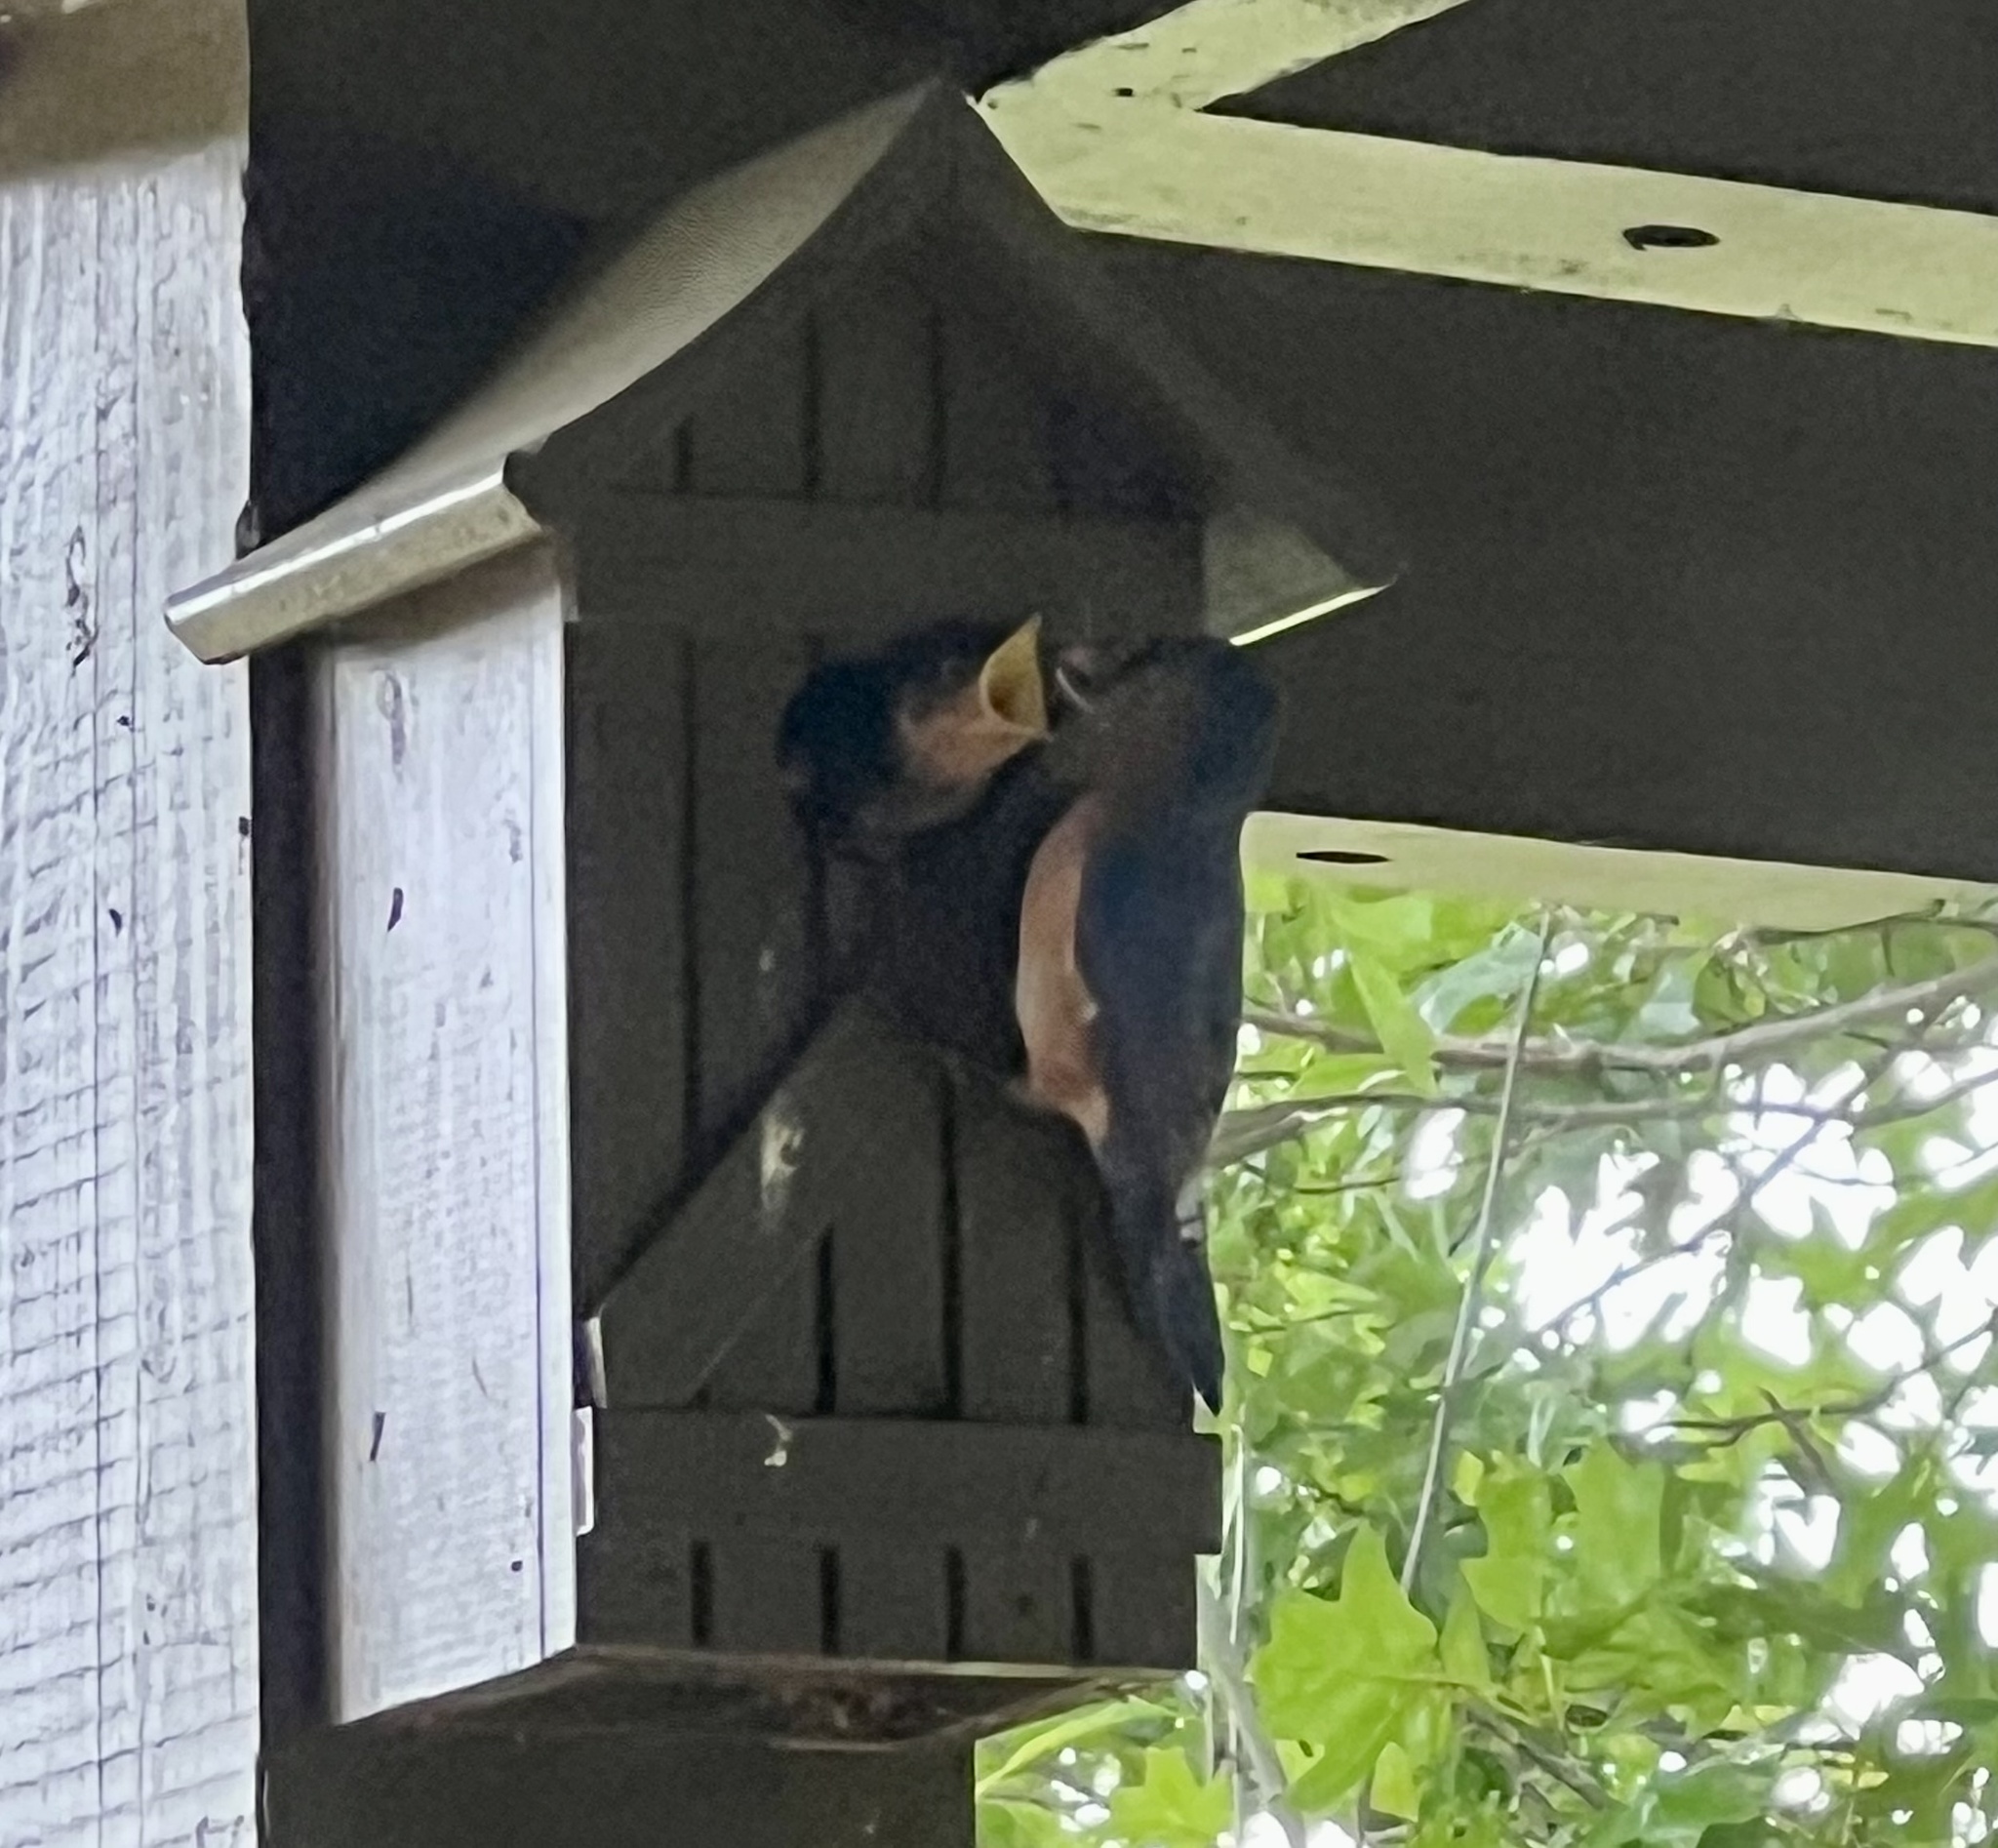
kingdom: Animalia
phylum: Chordata
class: Aves
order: Passeriformes
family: Turdidae
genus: Sialia
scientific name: Sialia sialis
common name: Eastern bluebird
